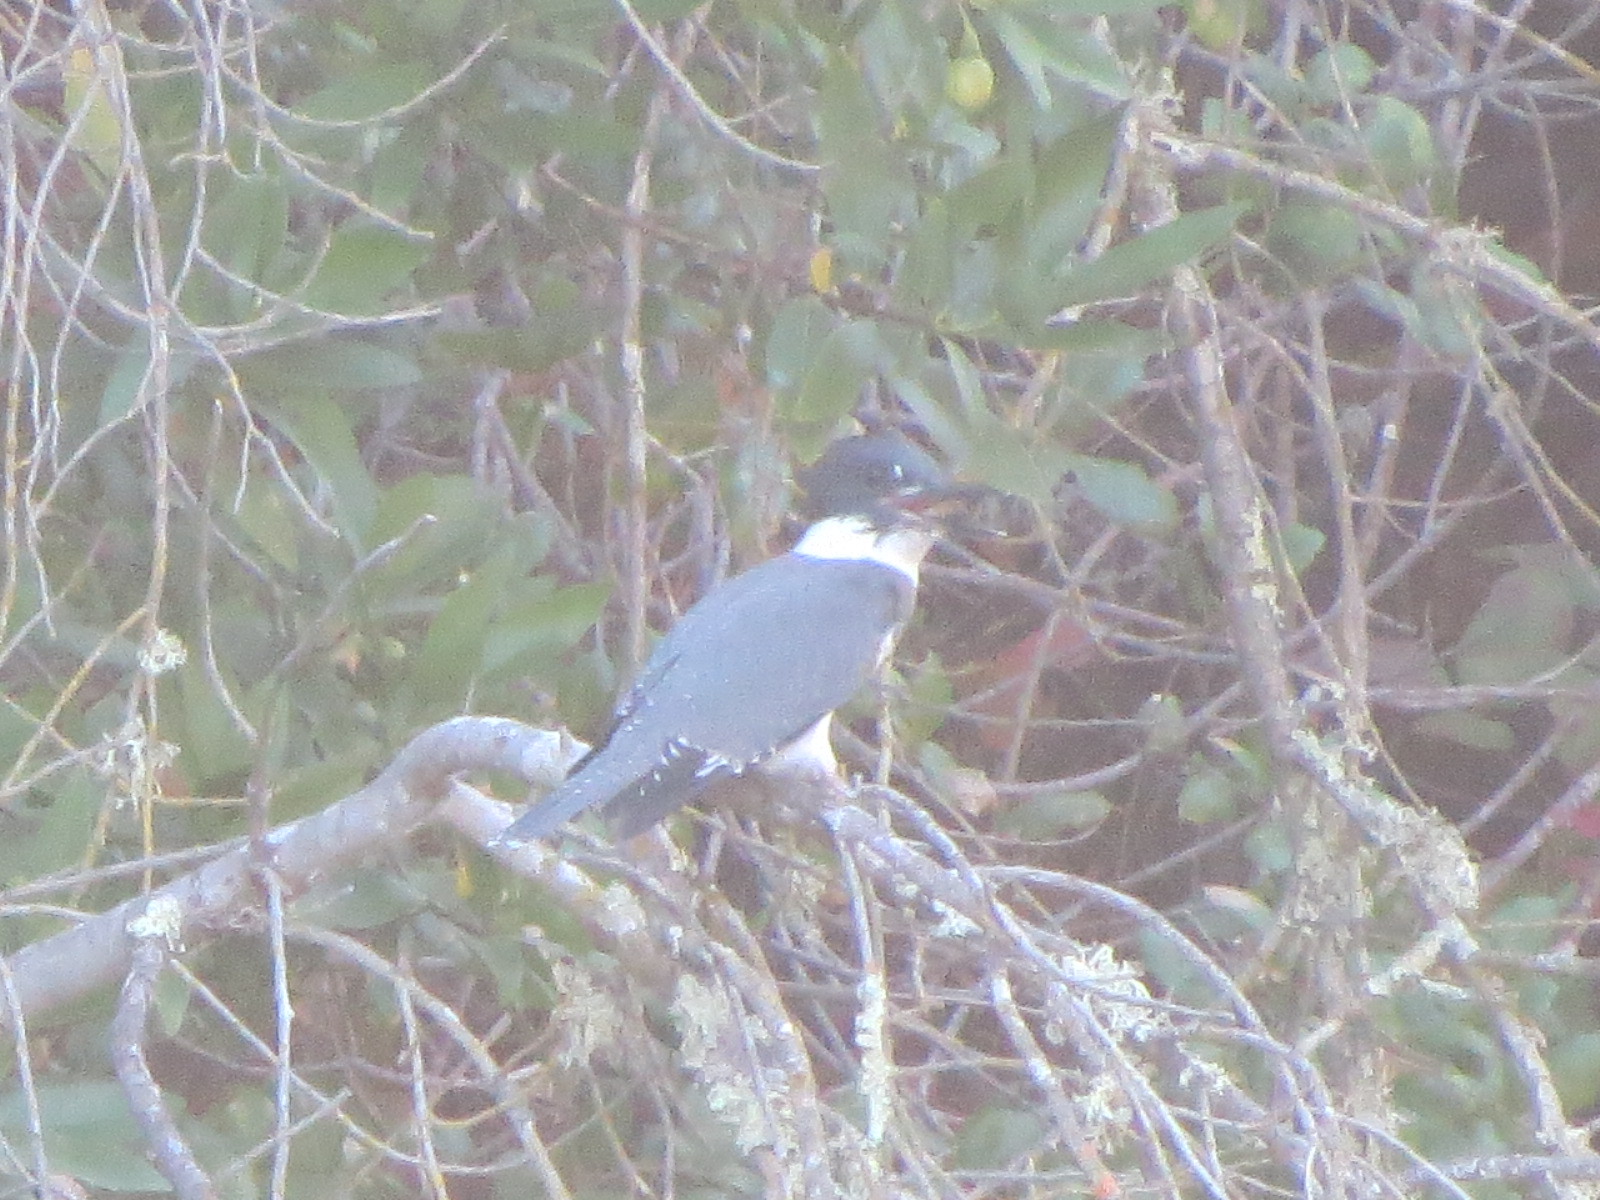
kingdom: Animalia
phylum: Chordata
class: Aves
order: Coraciiformes
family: Alcedinidae
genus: Megaceryle
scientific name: Megaceryle alcyon
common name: Belted kingfisher
